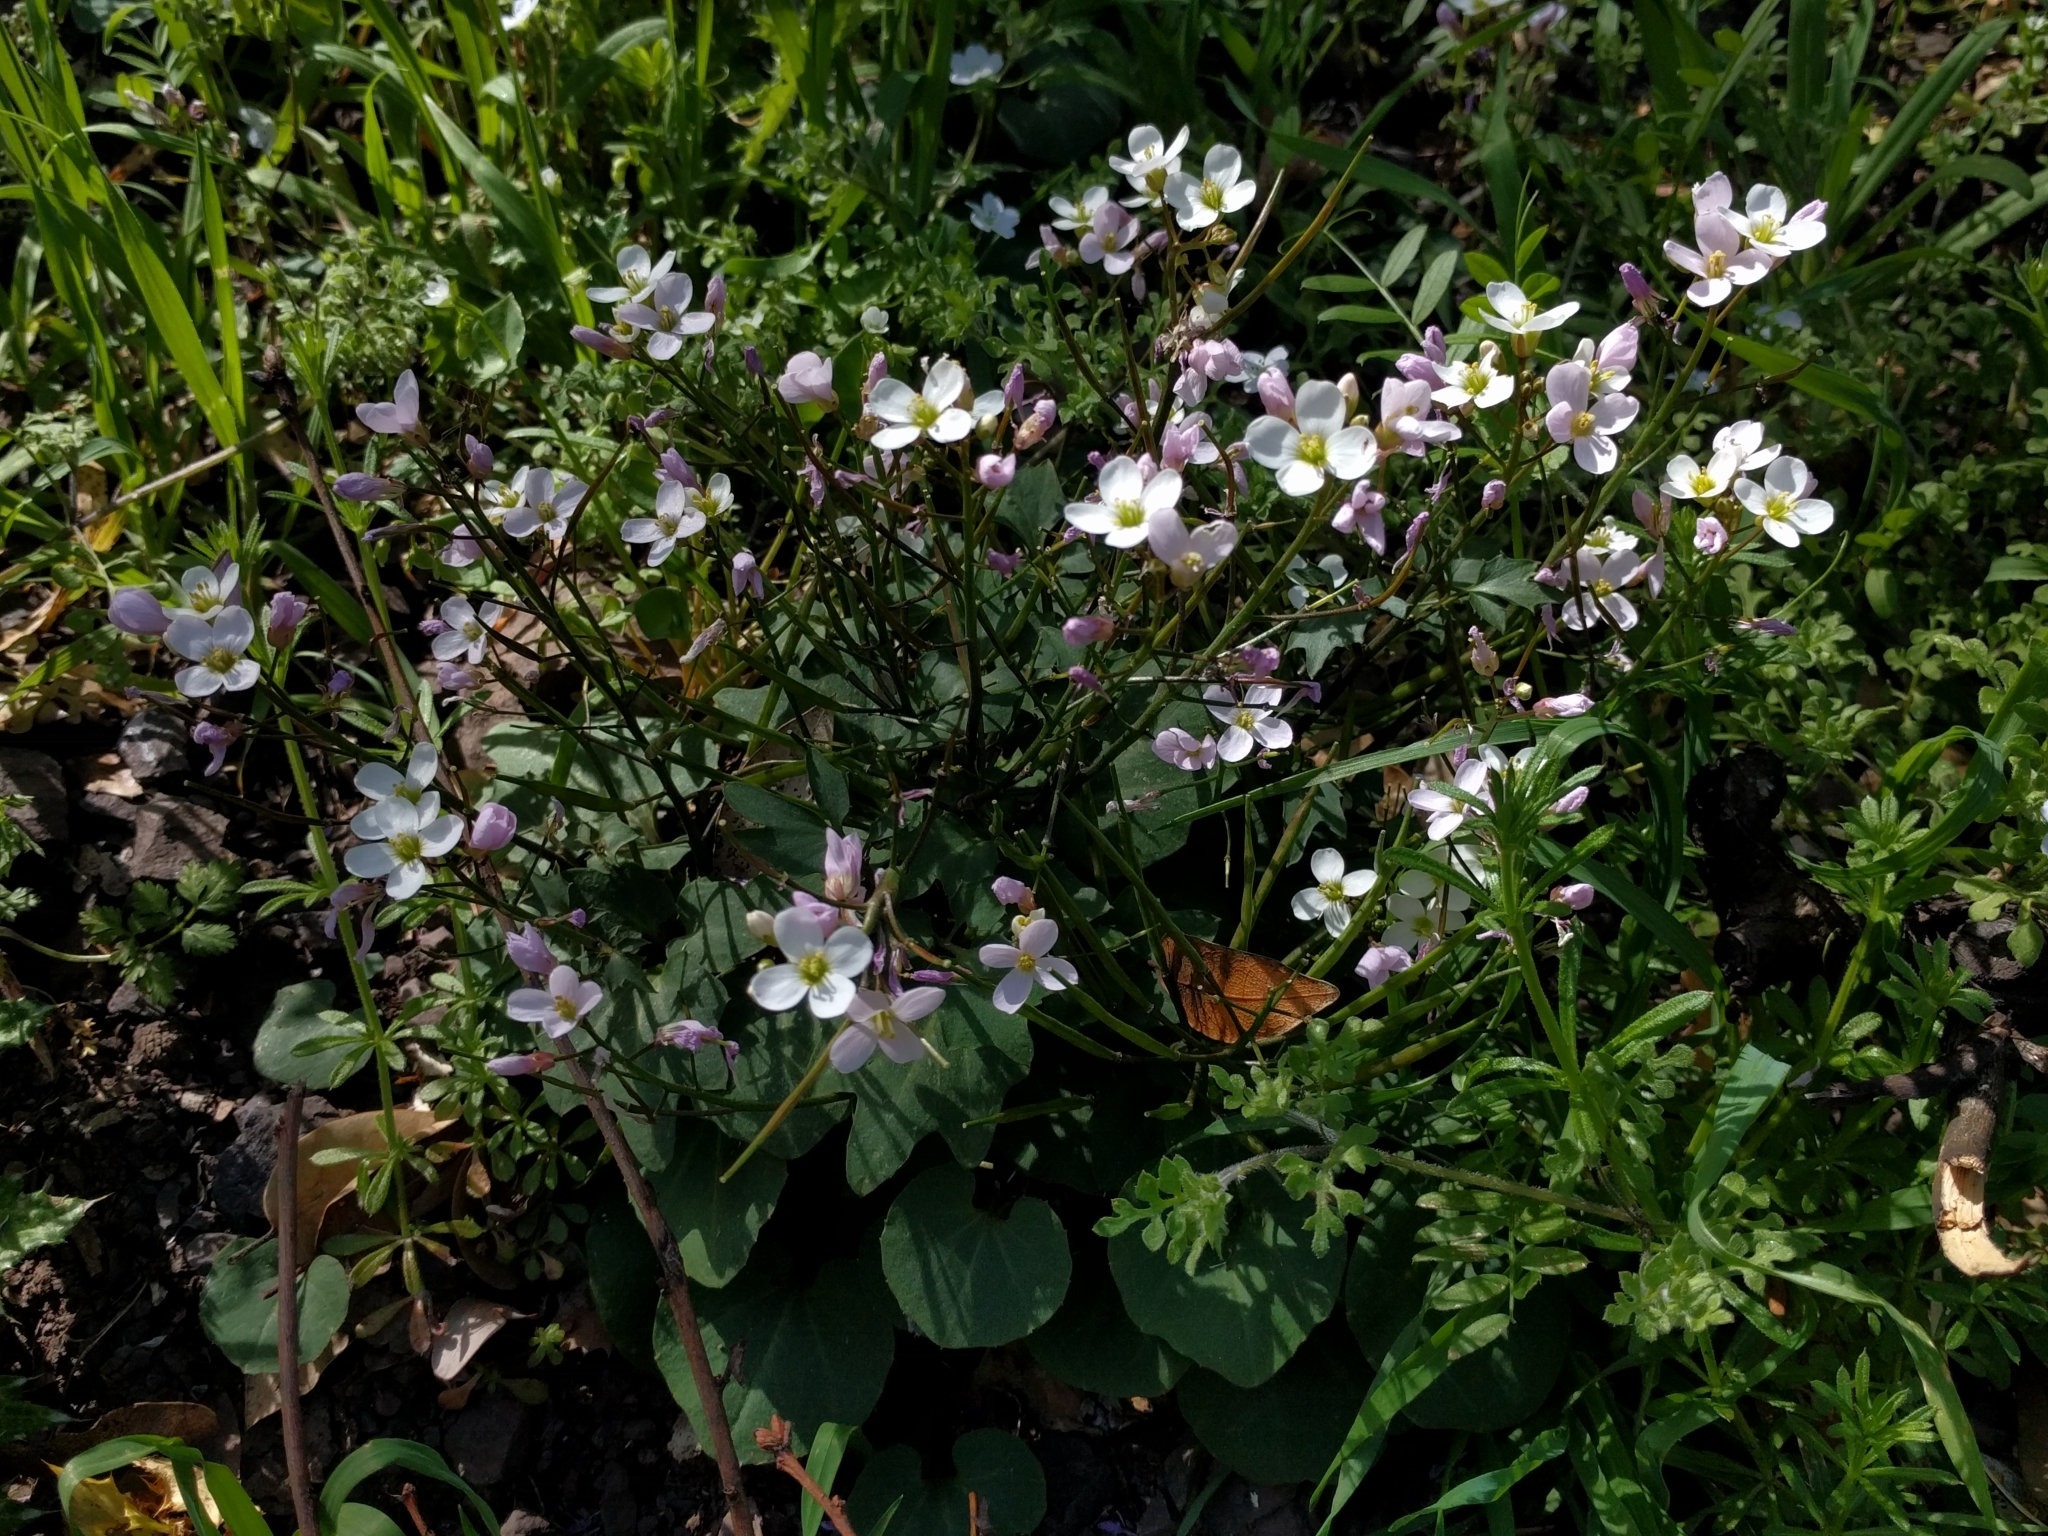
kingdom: Plantae
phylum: Tracheophyta
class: Magnoliopsida
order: Brassicales
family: Brassicaceae
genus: Cardamine
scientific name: Cardamine californica
